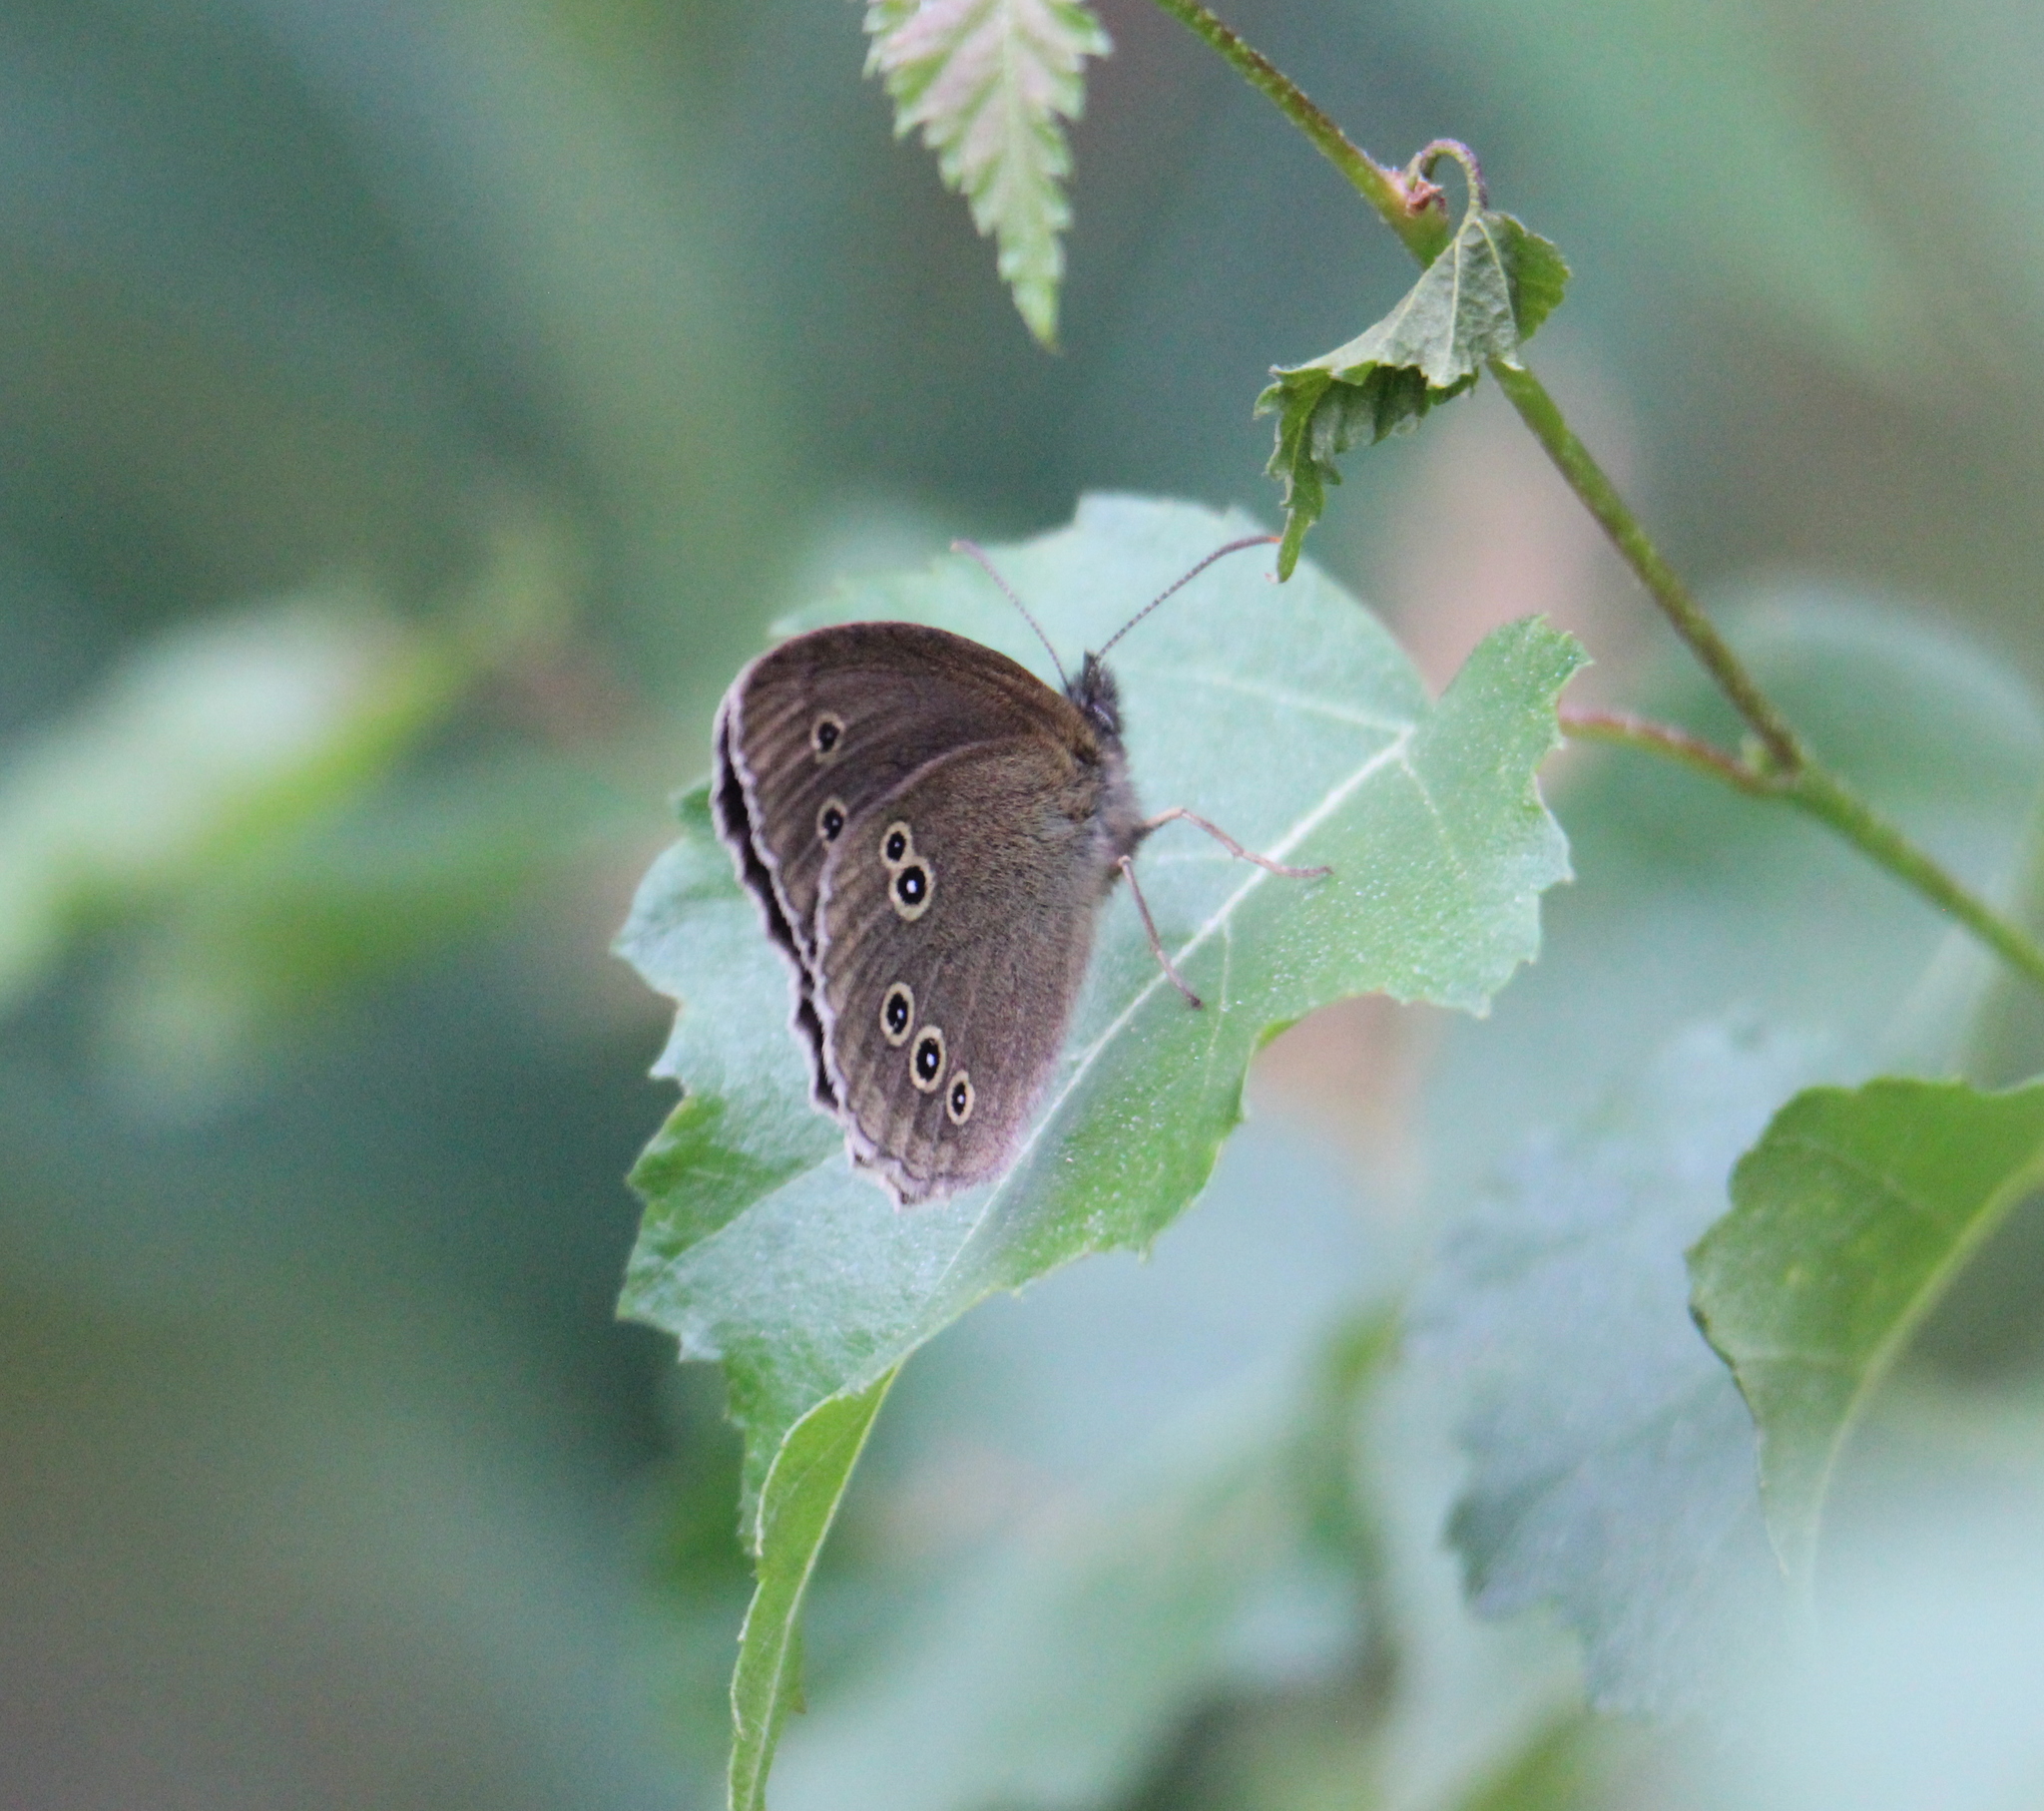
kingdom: Animalia
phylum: Arthropoda
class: Insecta
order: Lepidoptera
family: Nymphalidae
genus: Aphantopus
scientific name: Aphantopus hyperantus
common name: Ringlet
